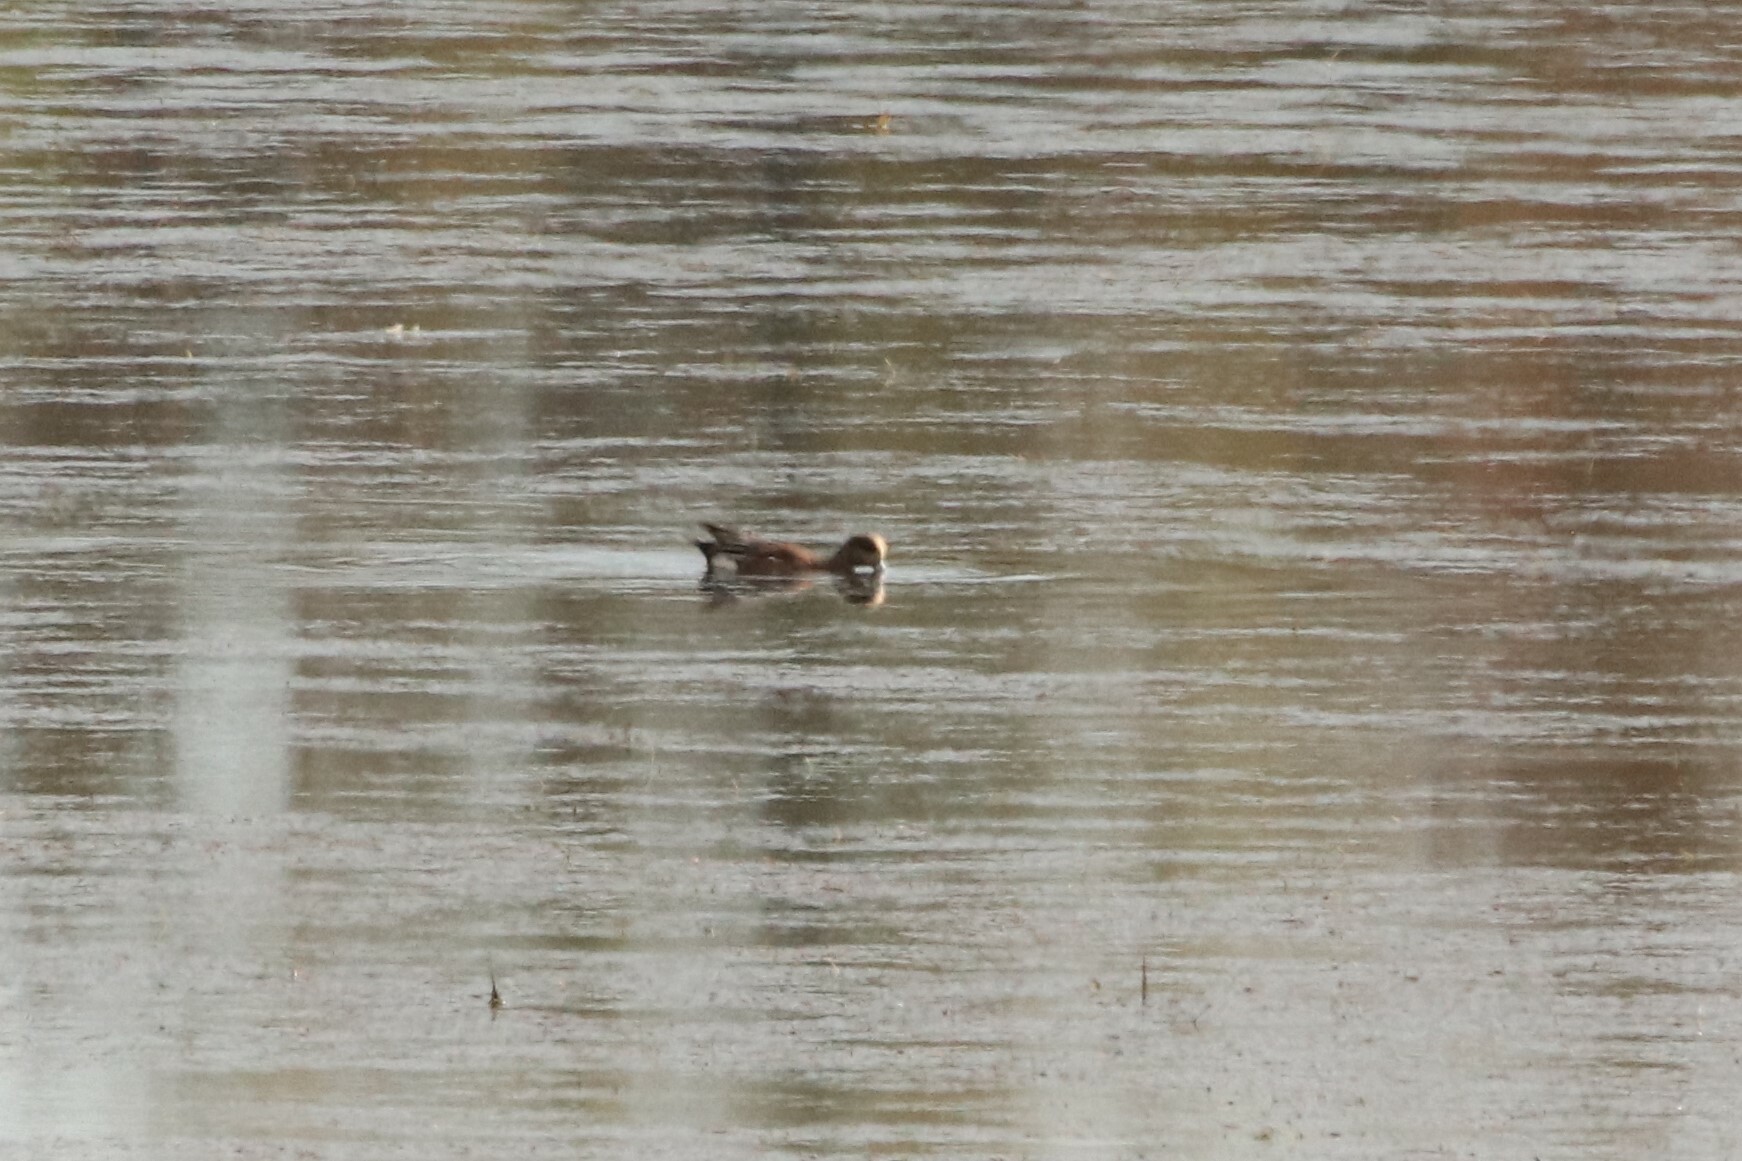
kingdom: Animalia
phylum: Chordata
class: Aves
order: Anseriformes
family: Anatidae
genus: Mareca
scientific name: Mareca americana
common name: American wigeon
